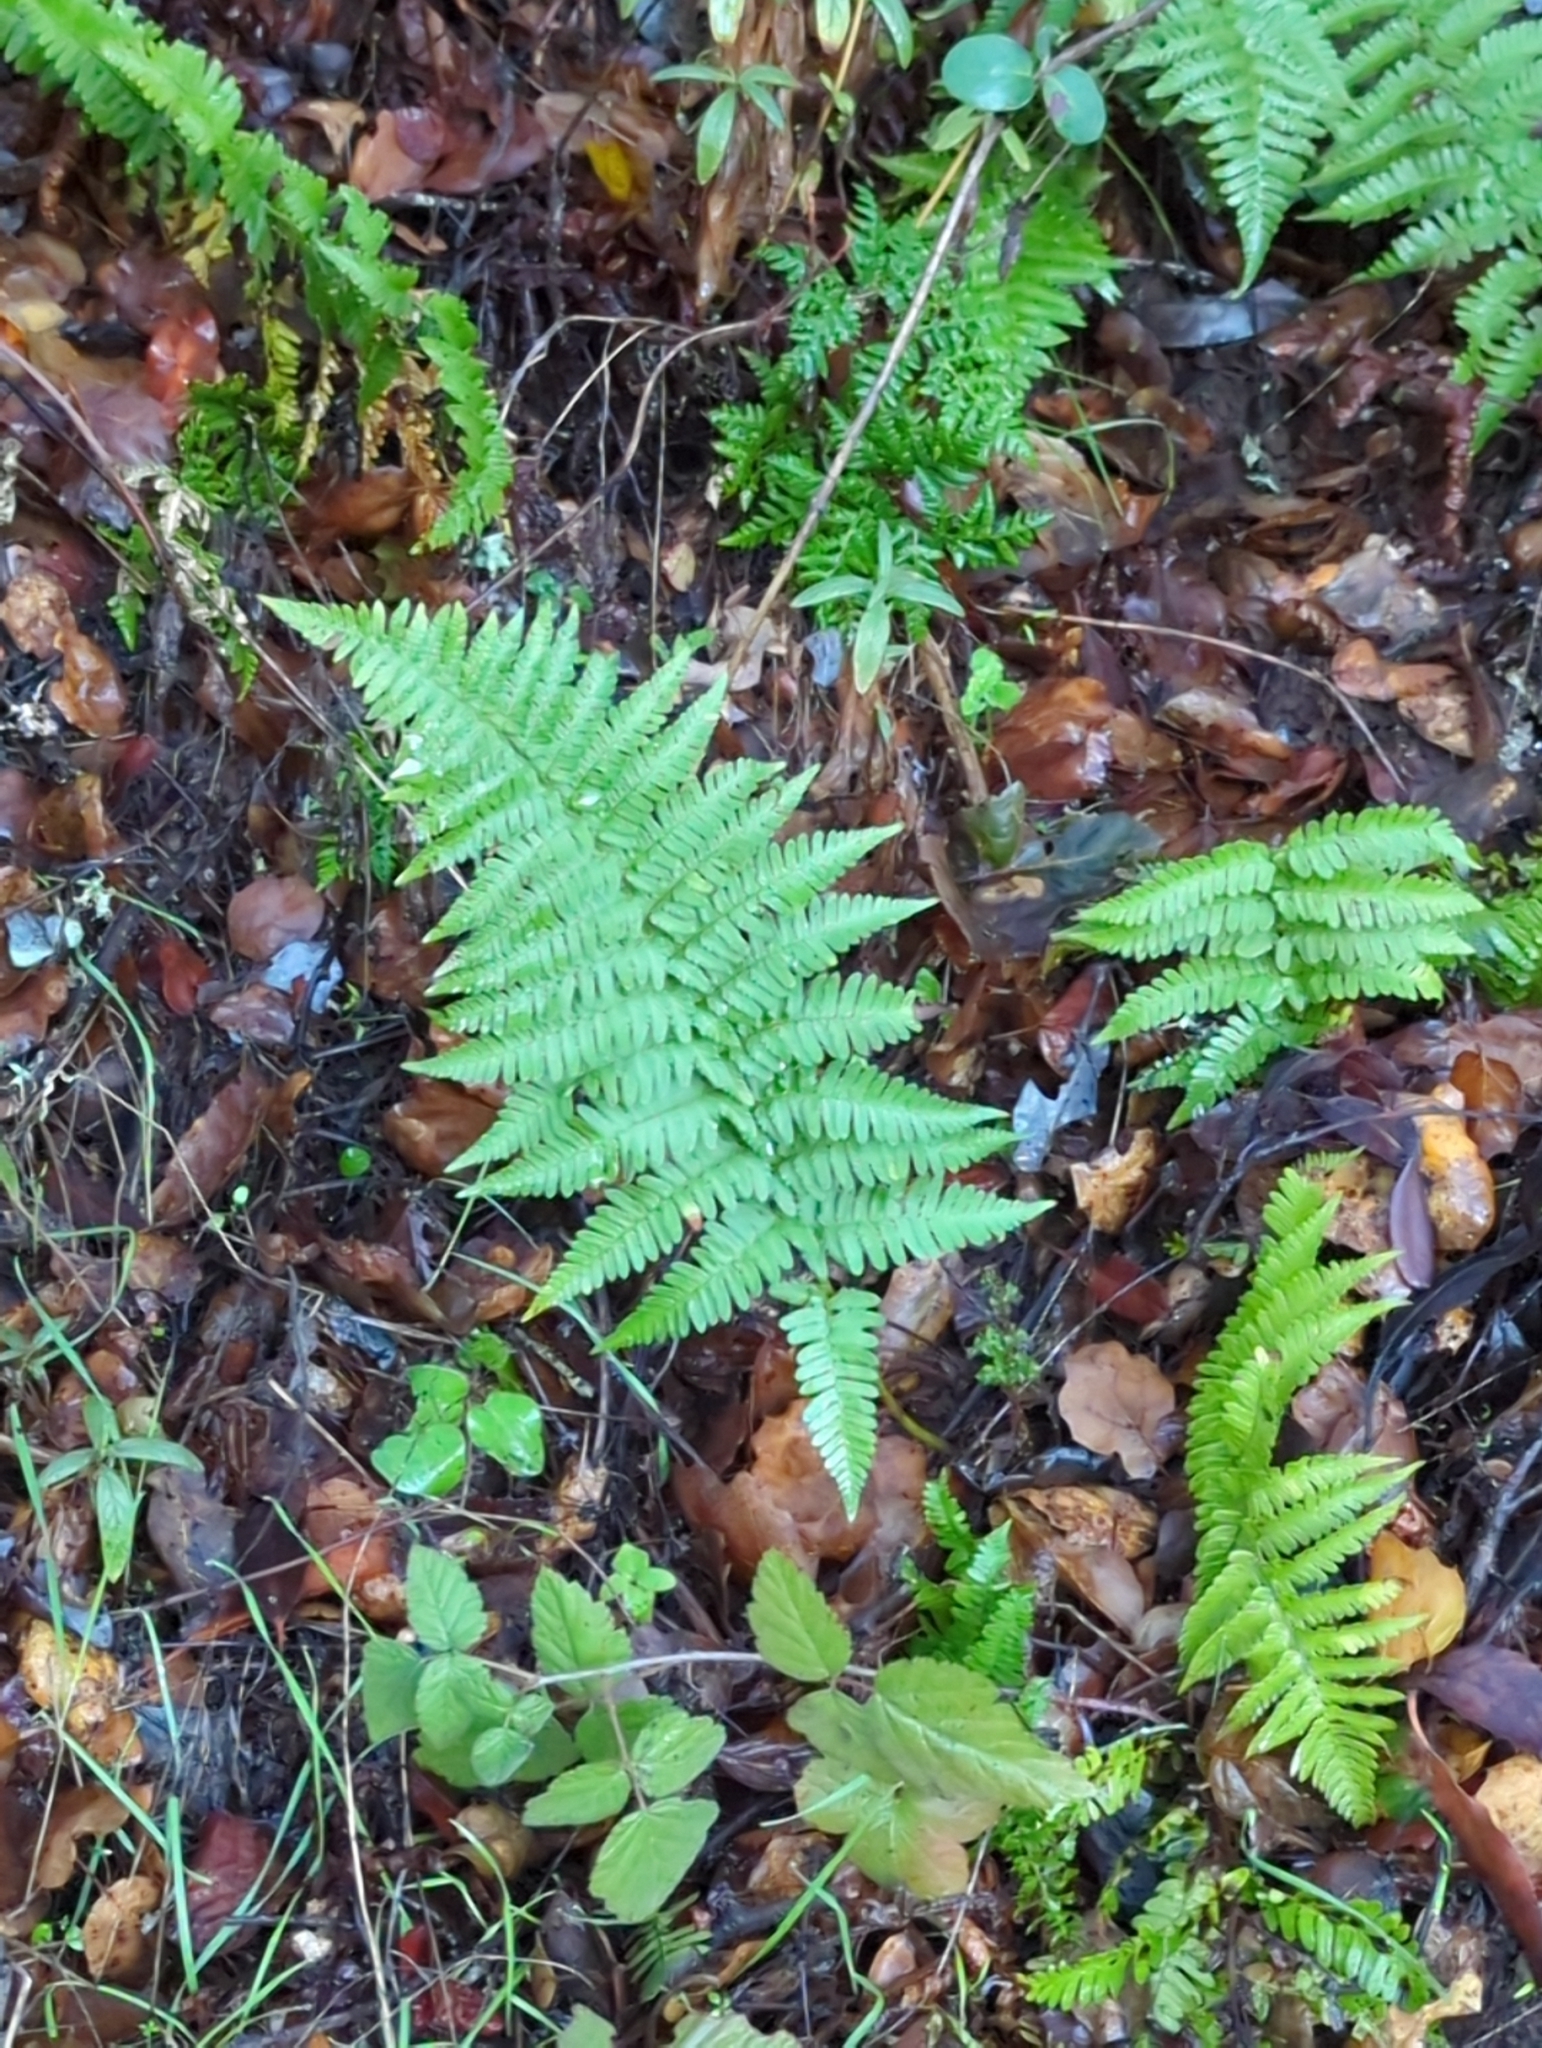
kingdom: Plantae
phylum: Tracheophyta
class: Polypodiopsida
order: Polypodiales
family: Dryopteridaceae
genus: Dryopteris
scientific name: Dryopteris arguta
